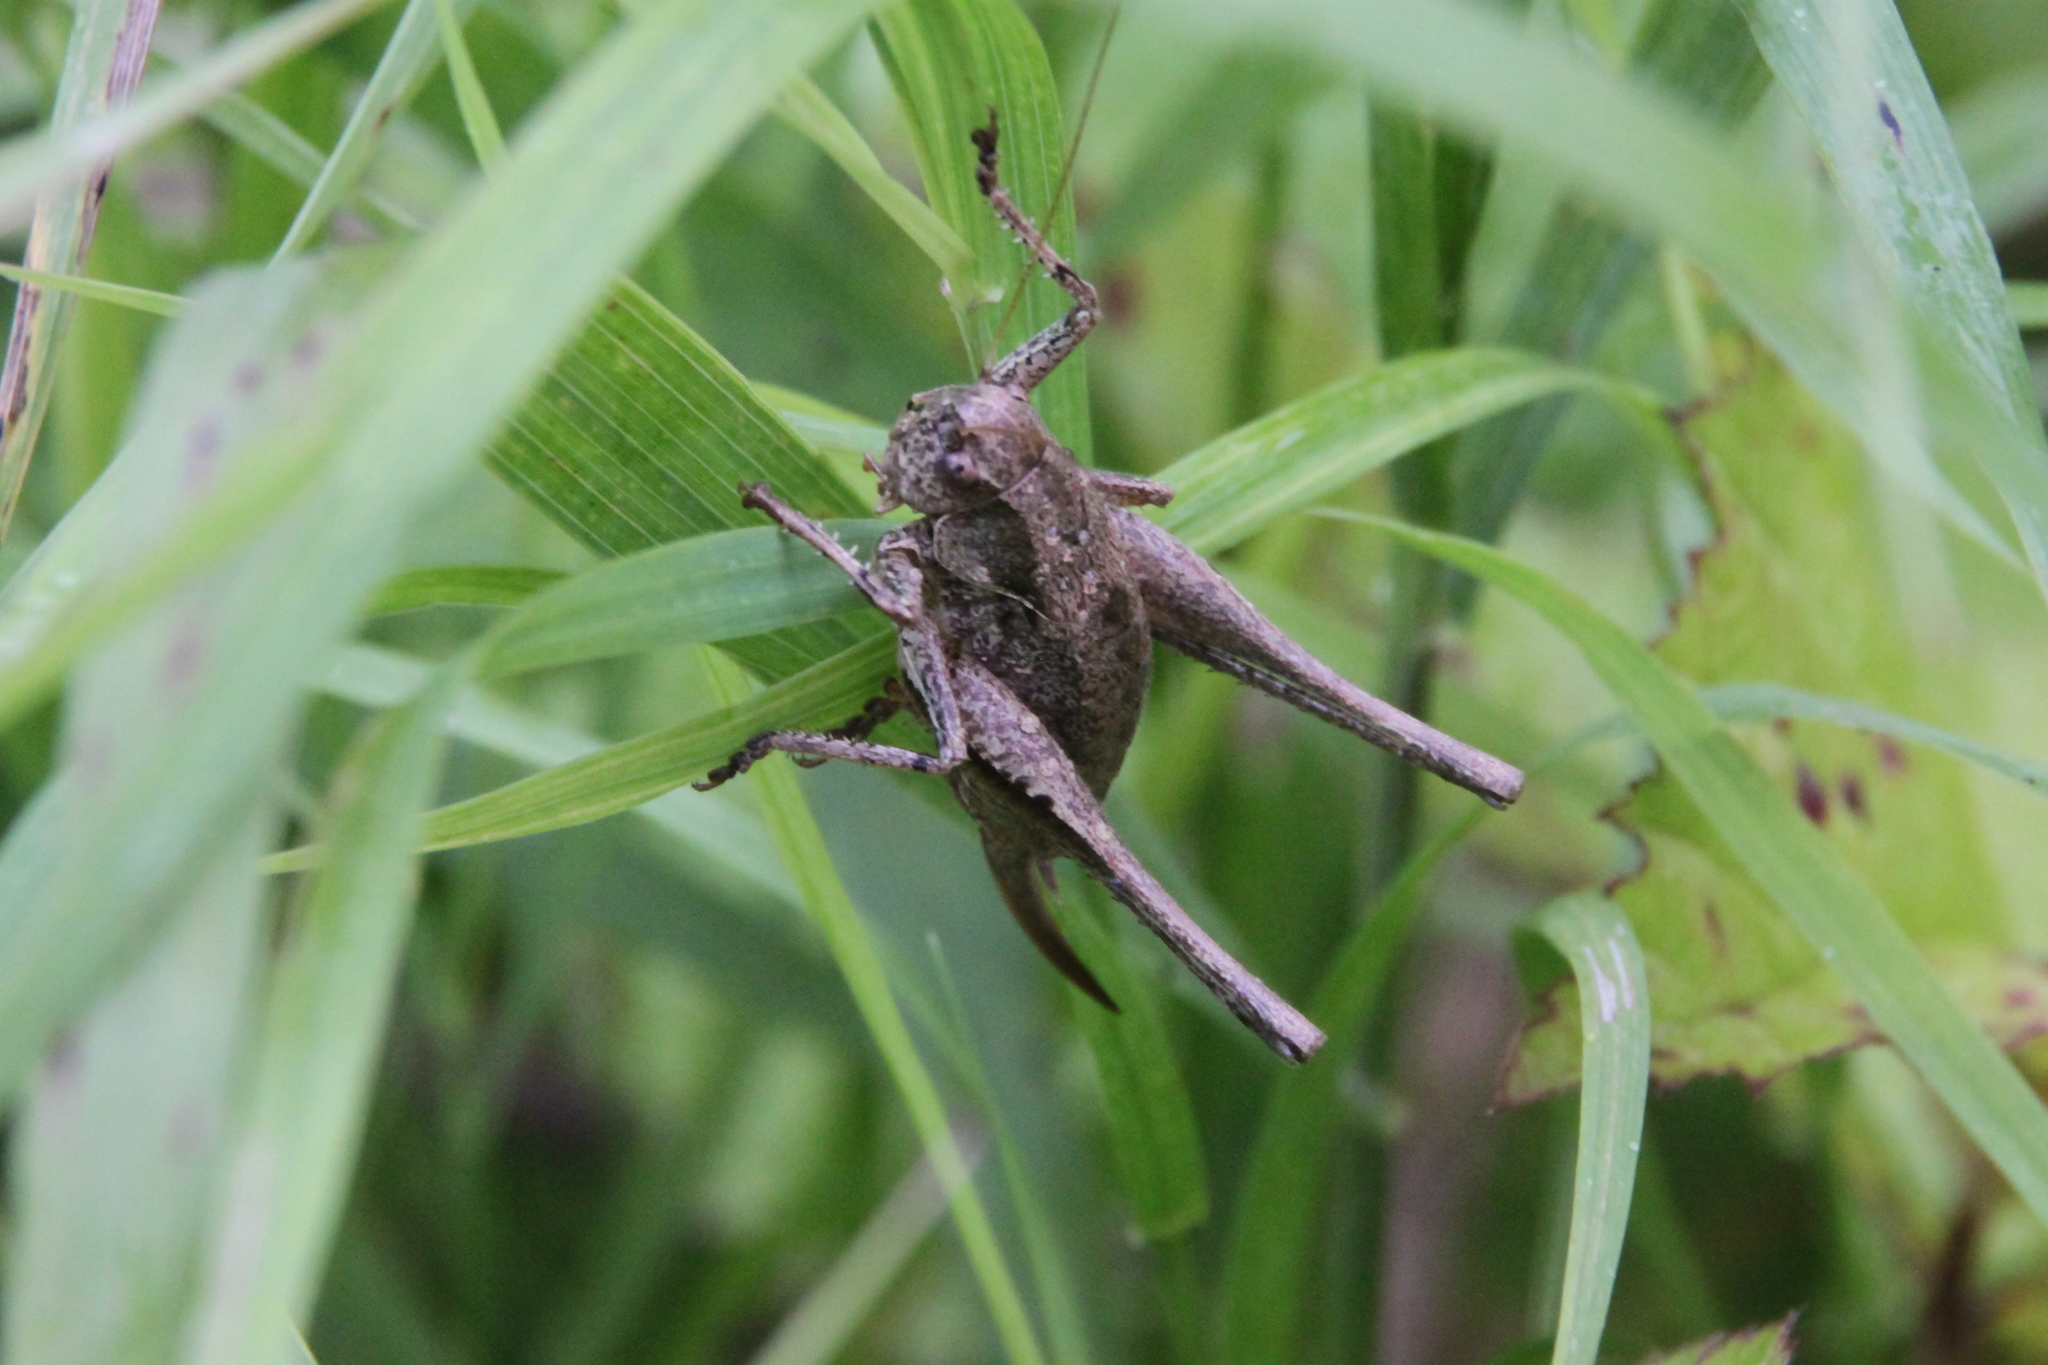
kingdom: Animalia
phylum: Arthropoda
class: Insecta
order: Orthoptera
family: Tettigoniidae
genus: Pholidoptera
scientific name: Pholidoptera griseoaptera
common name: Dark bush-cricket
